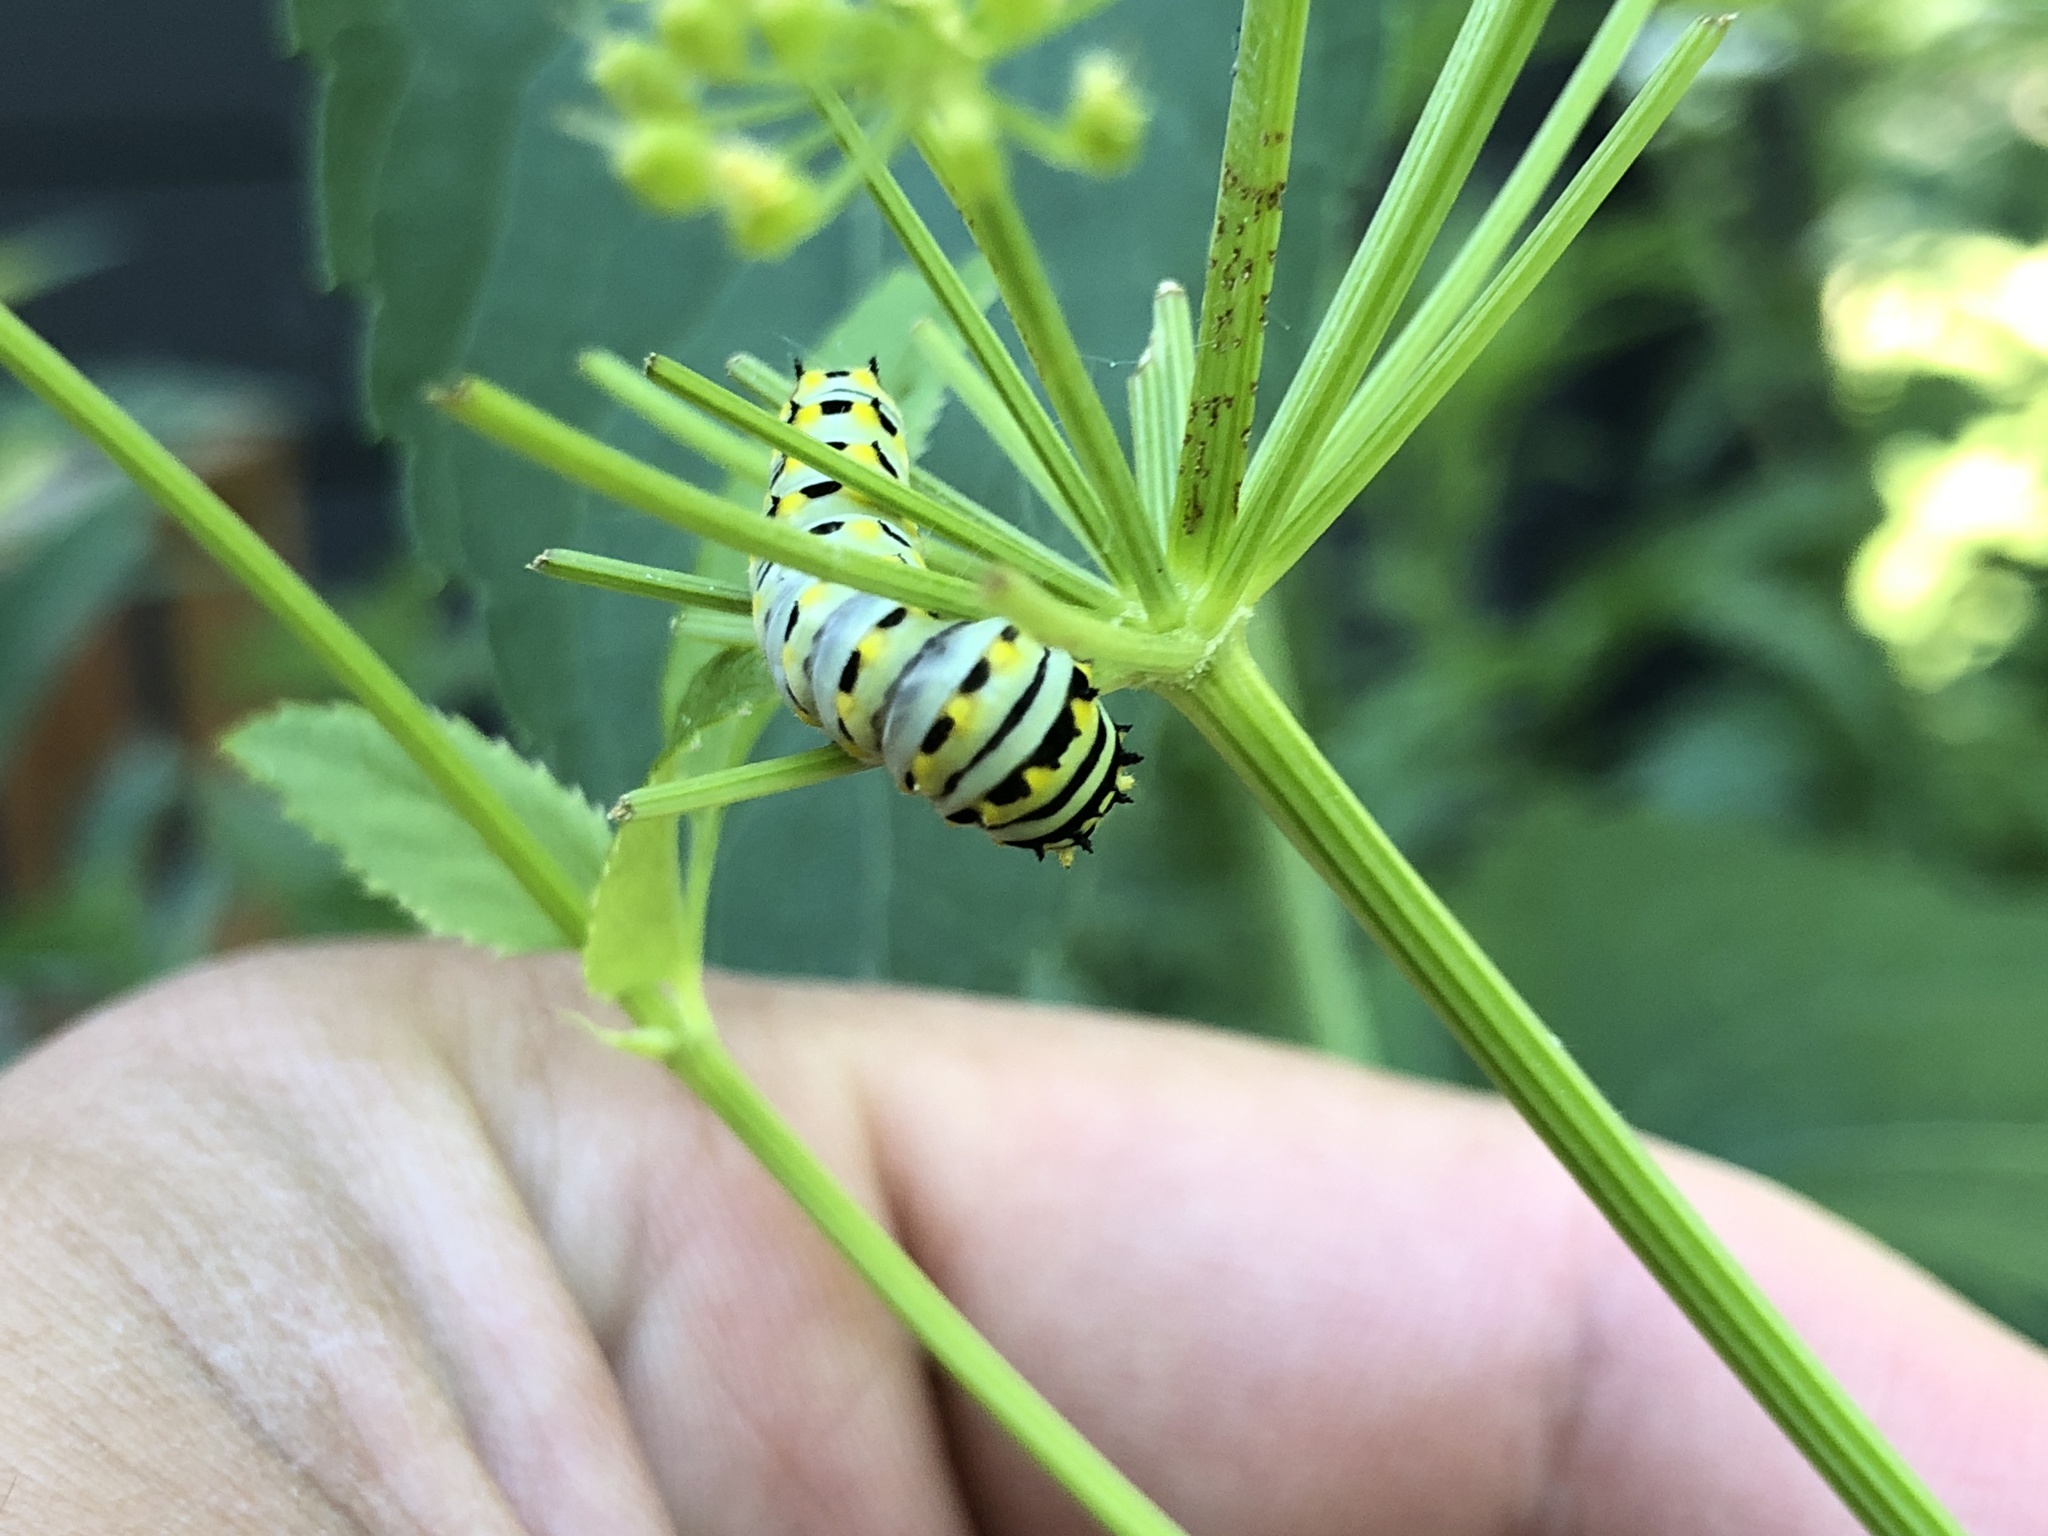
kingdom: Animalia
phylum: Arthropoda
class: Insecta
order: Lepidoptera
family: Papilionidae
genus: Papilio
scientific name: Papilio polyxenes
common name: Black swallowtail
